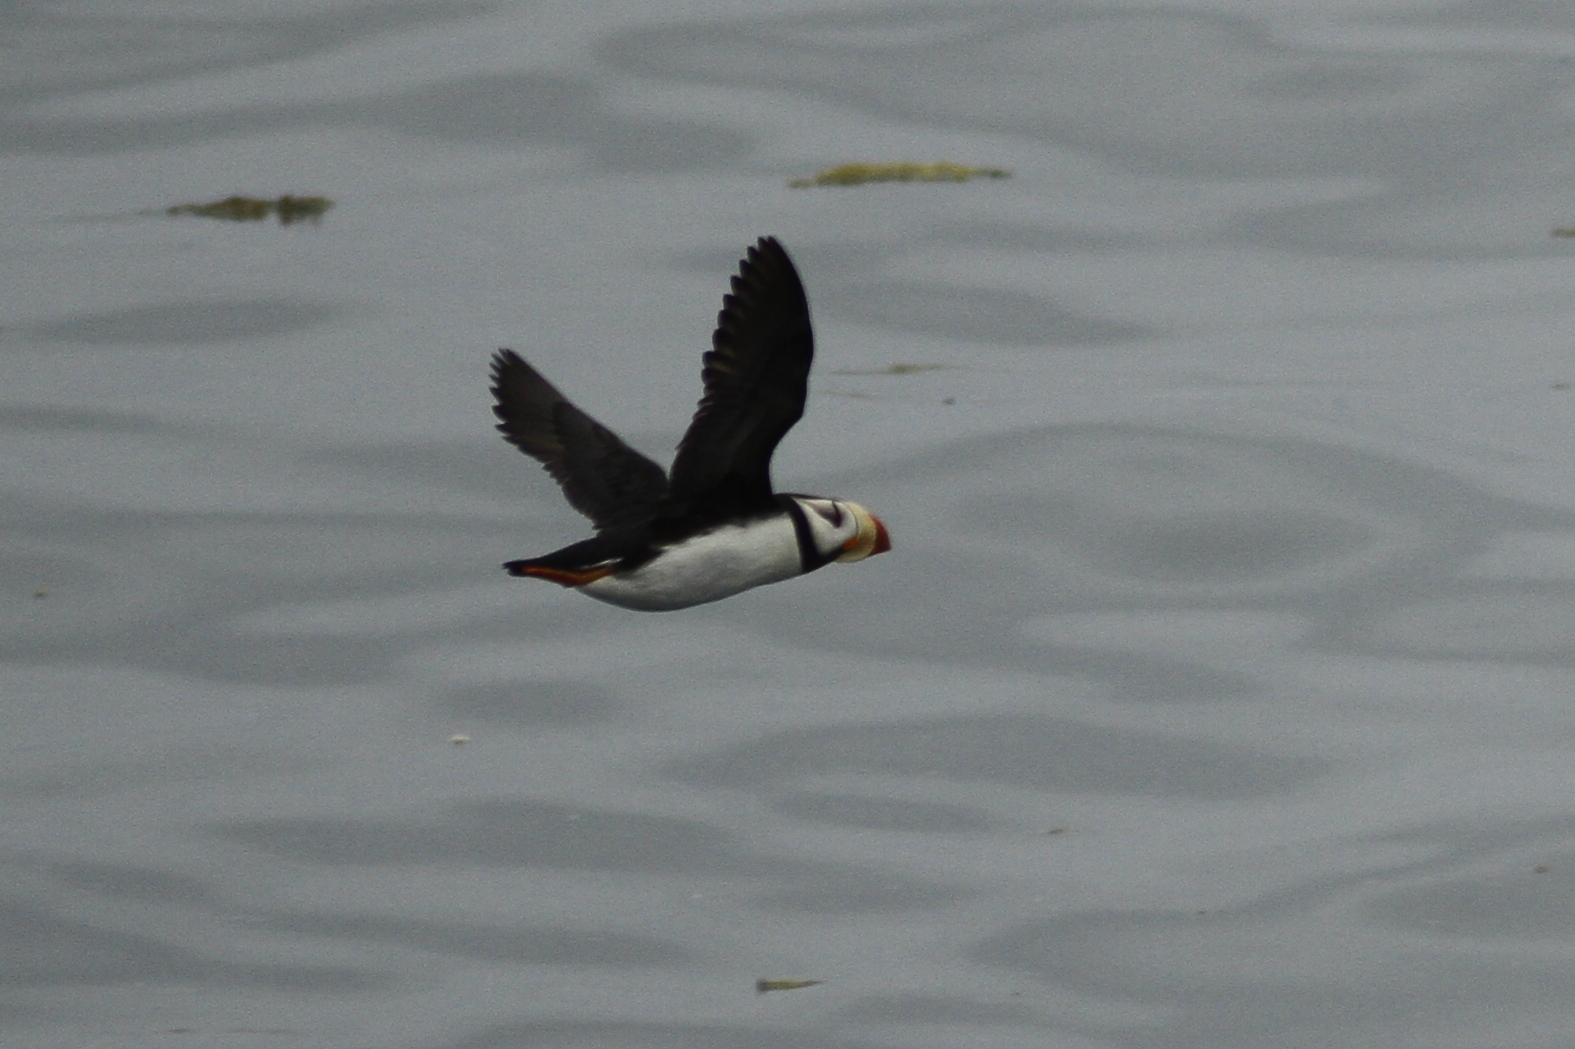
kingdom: Animalia
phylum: Chordata
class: Aves
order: Charadriiformes
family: Alcidae
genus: Fratercula
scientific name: Fratercula corniculata
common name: Horned puffin
